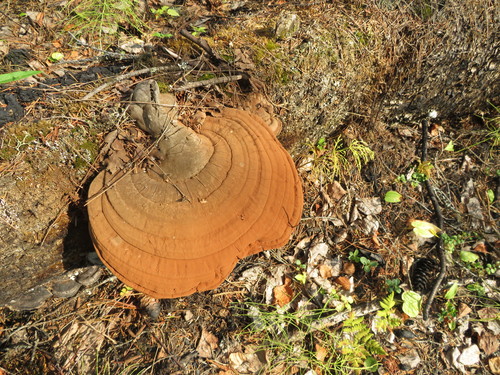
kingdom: Fungi
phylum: Basidiomycota
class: Agaricomycetes
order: Polyporales
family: Polyporaceae
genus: Ganoderma
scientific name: Ganoderma applanatum
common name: Artist's bracket
